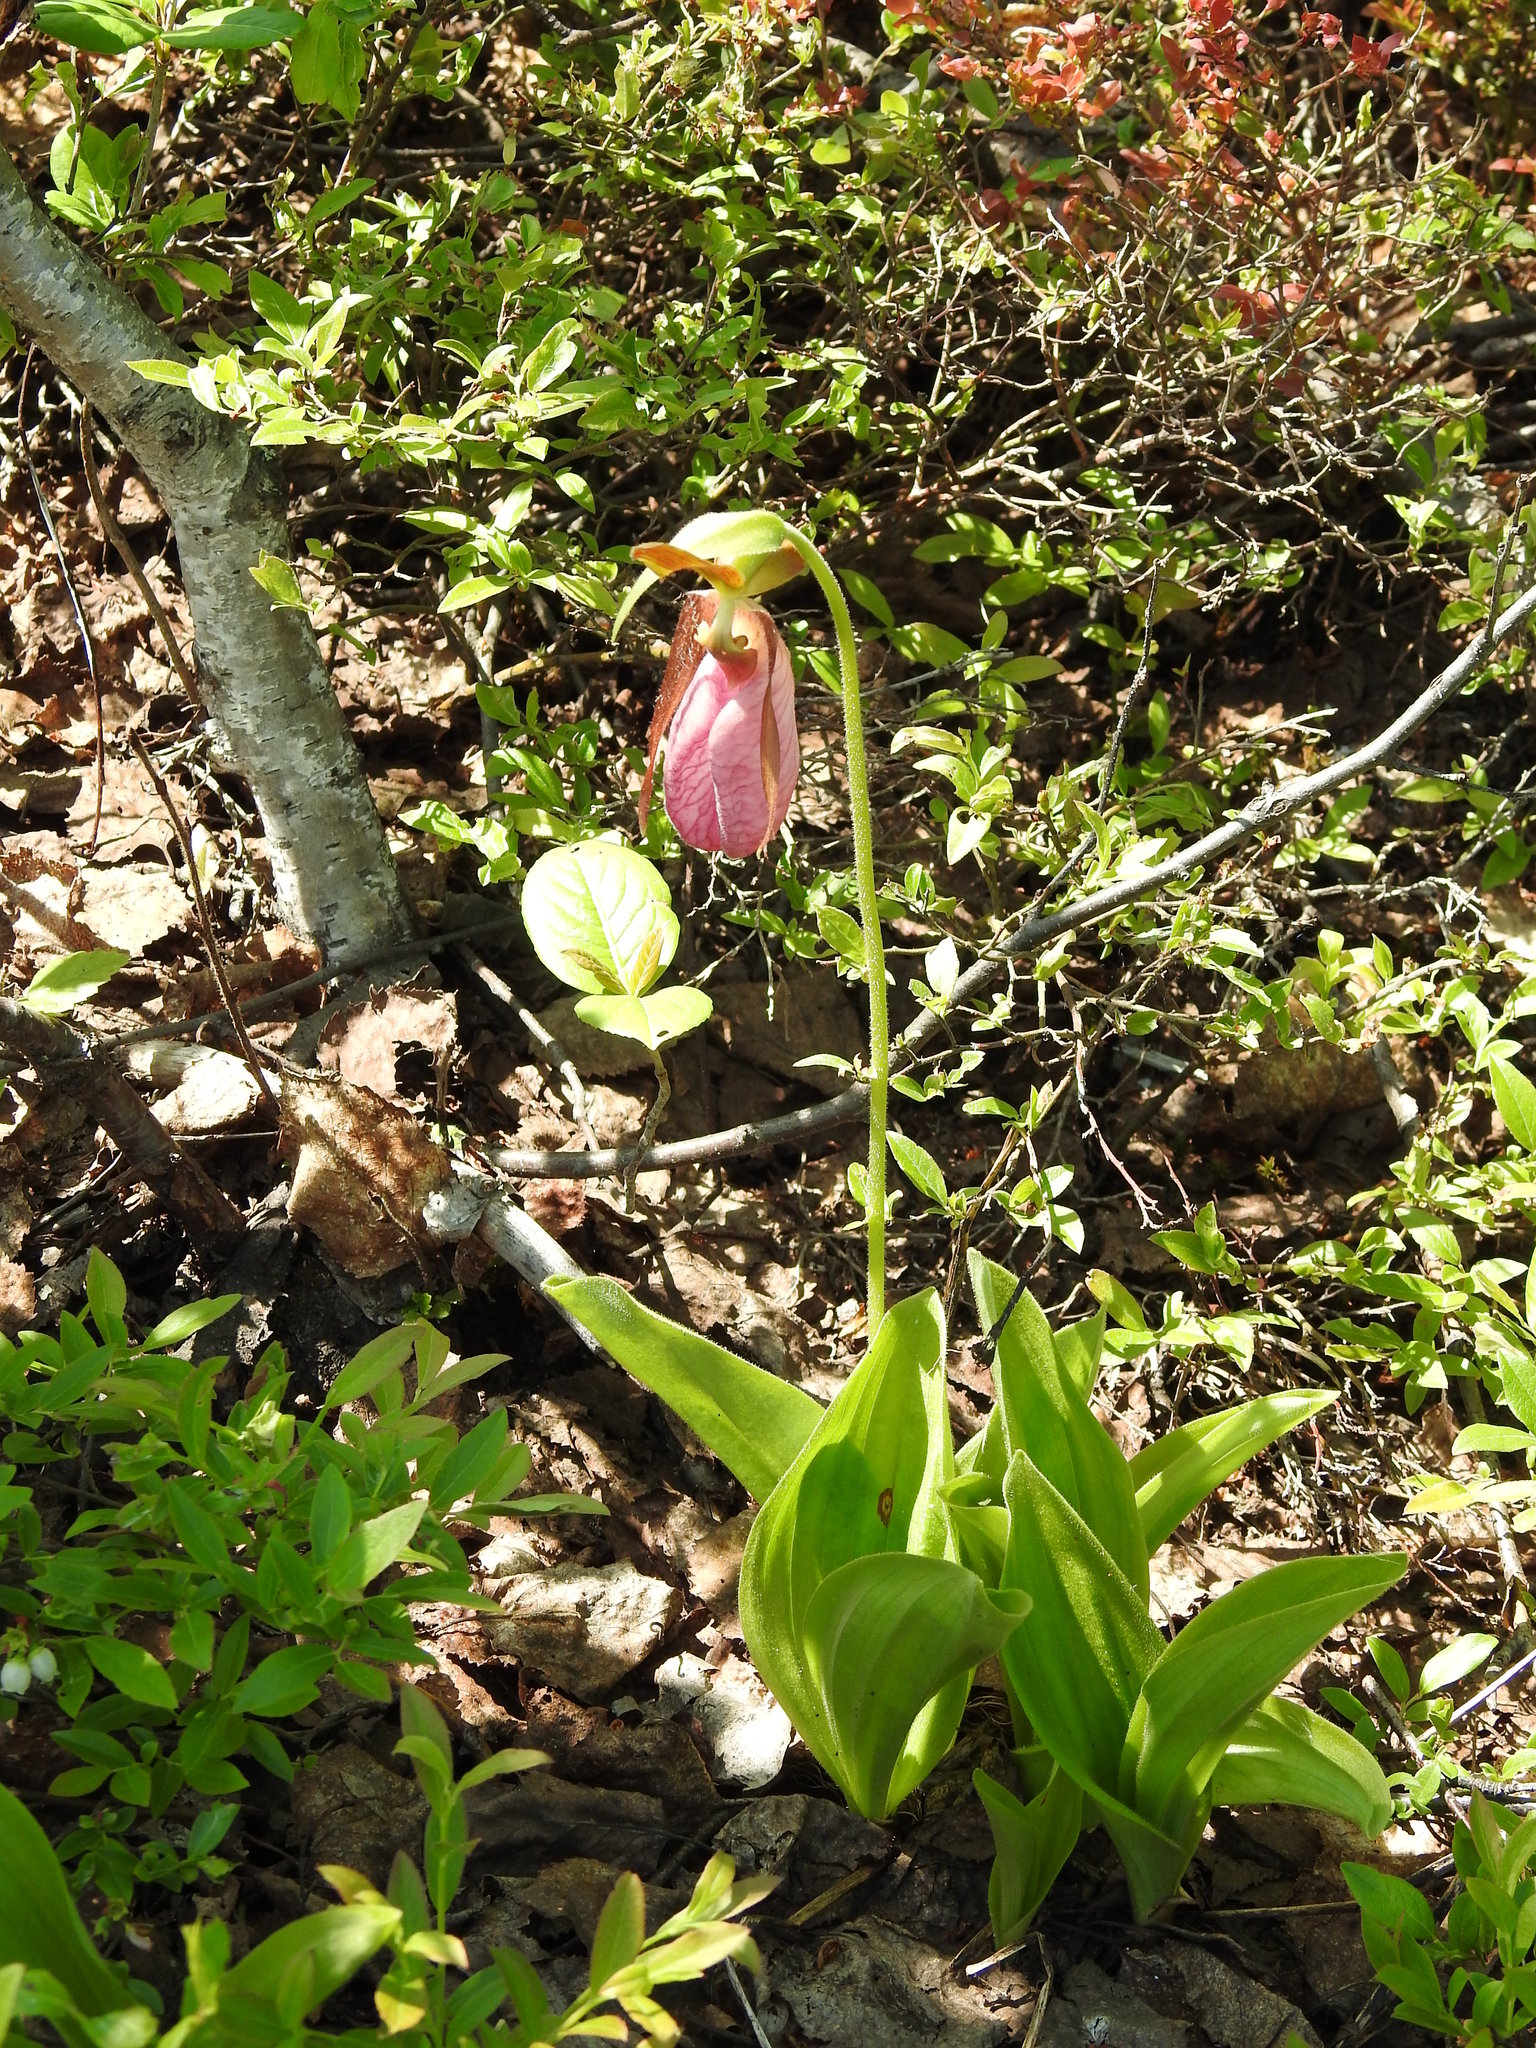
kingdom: Plantae
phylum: Tracheophyta
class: Liliopsida
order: Asparagales
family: Orchidaceae
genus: Cypripedium
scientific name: Cypripedium acaule
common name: Pink lady's-slipper
